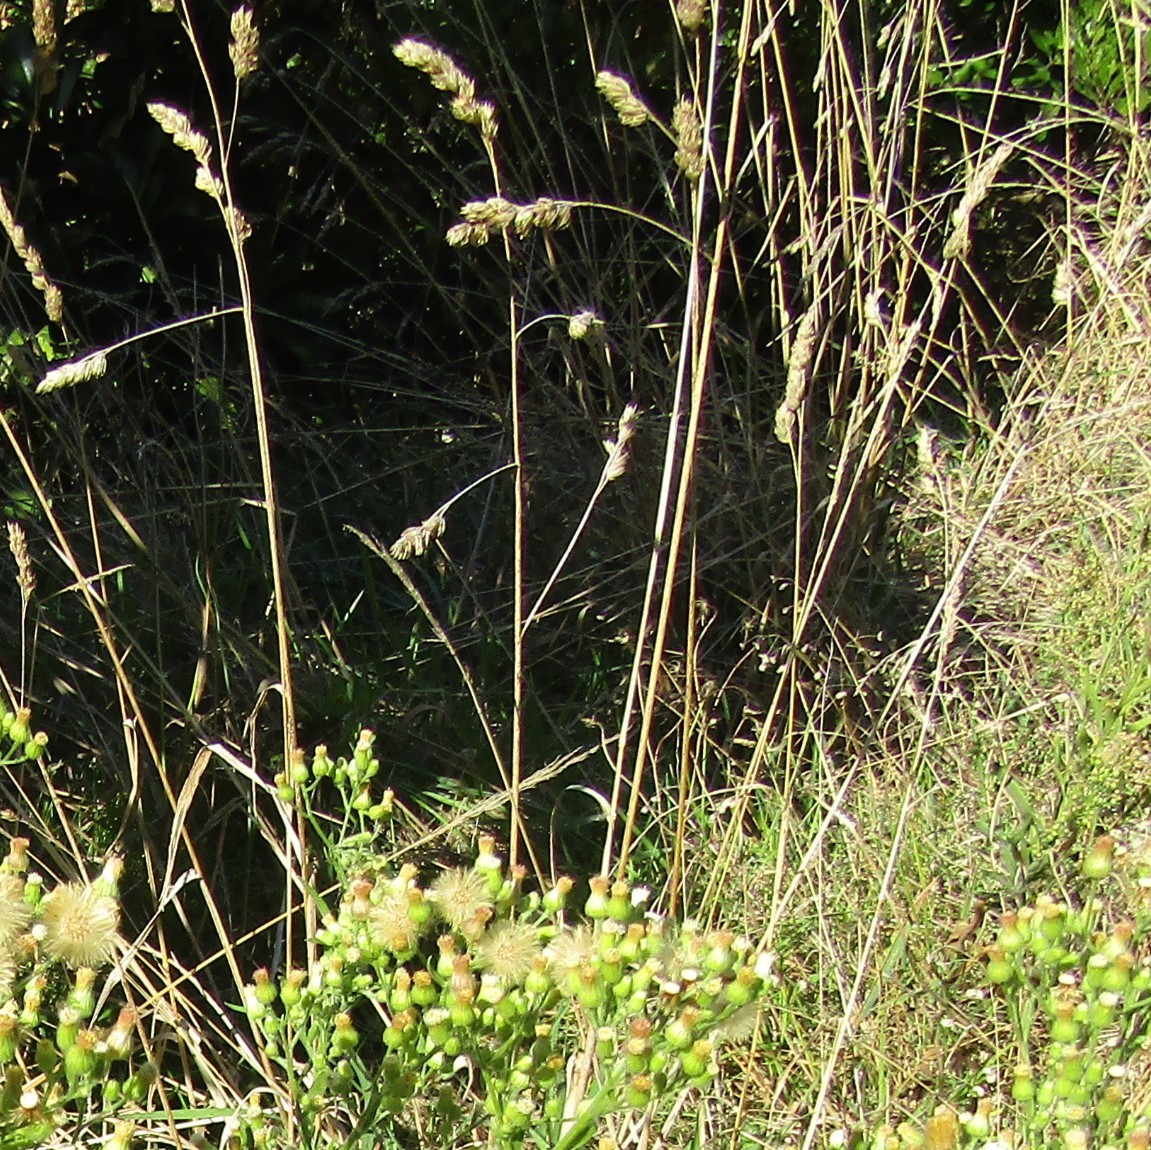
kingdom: Plantae
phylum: Tracheophyta
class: Liliopsida
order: Poales
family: Poaceae
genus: Dactylis
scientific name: Dactylis glomerata
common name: Orchardgrass
